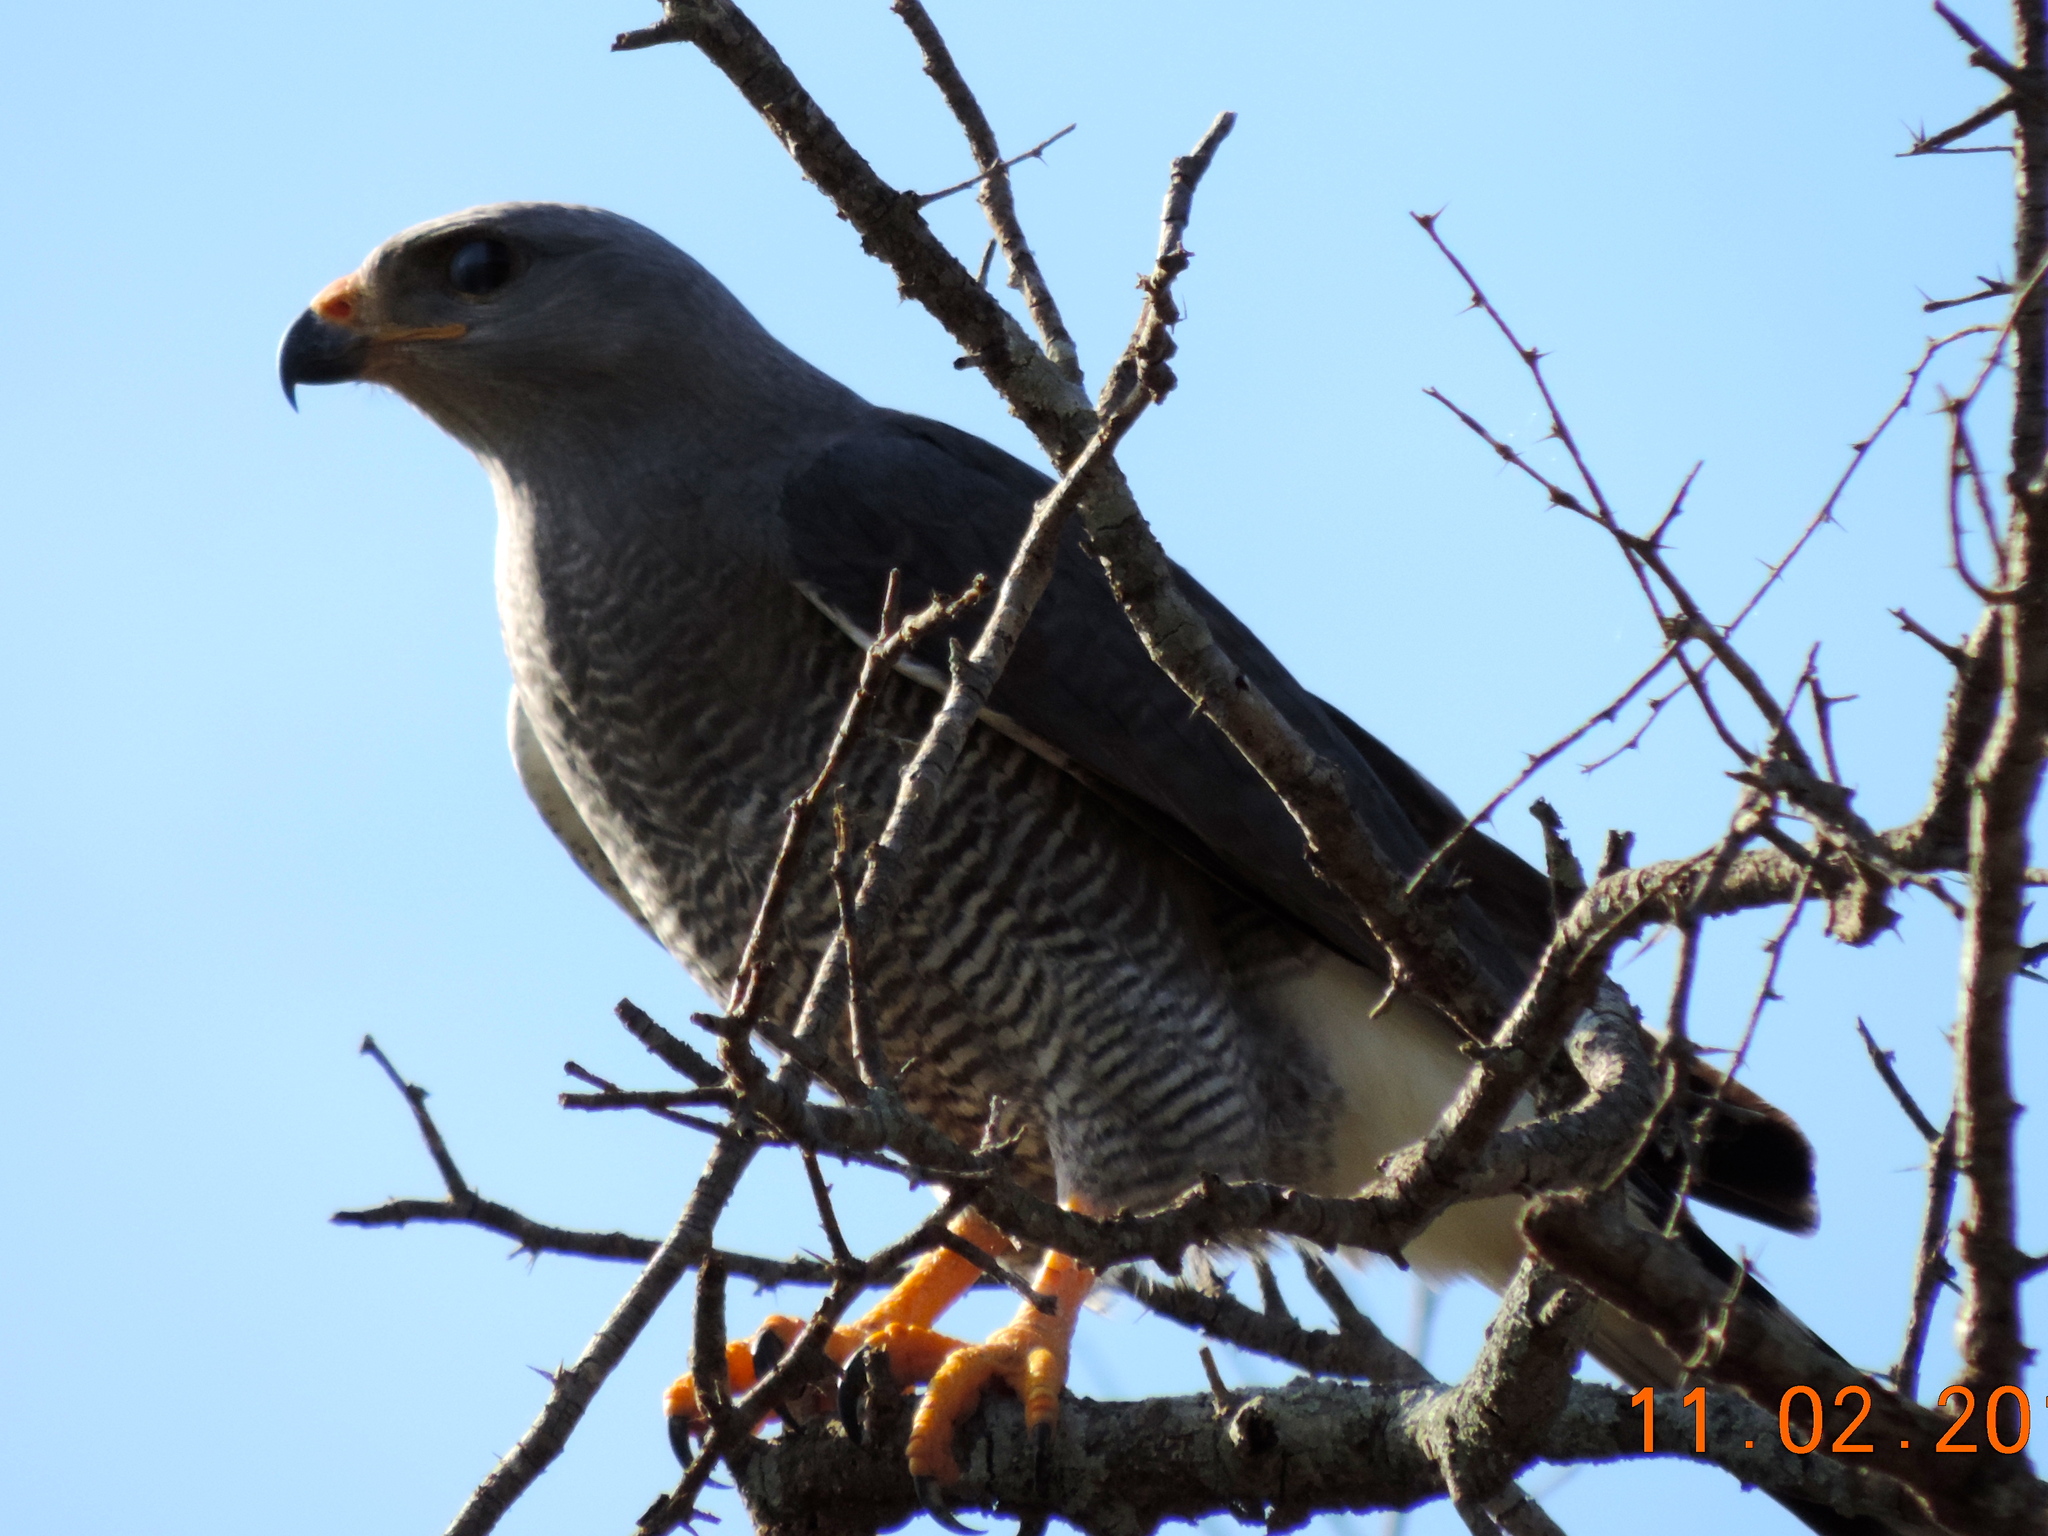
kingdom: Animalia
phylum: Chordata
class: Aves
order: Accipitriformes
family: Accipitridae
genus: Buteo
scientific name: Buteo nitidus
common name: Grey-lined hawk
